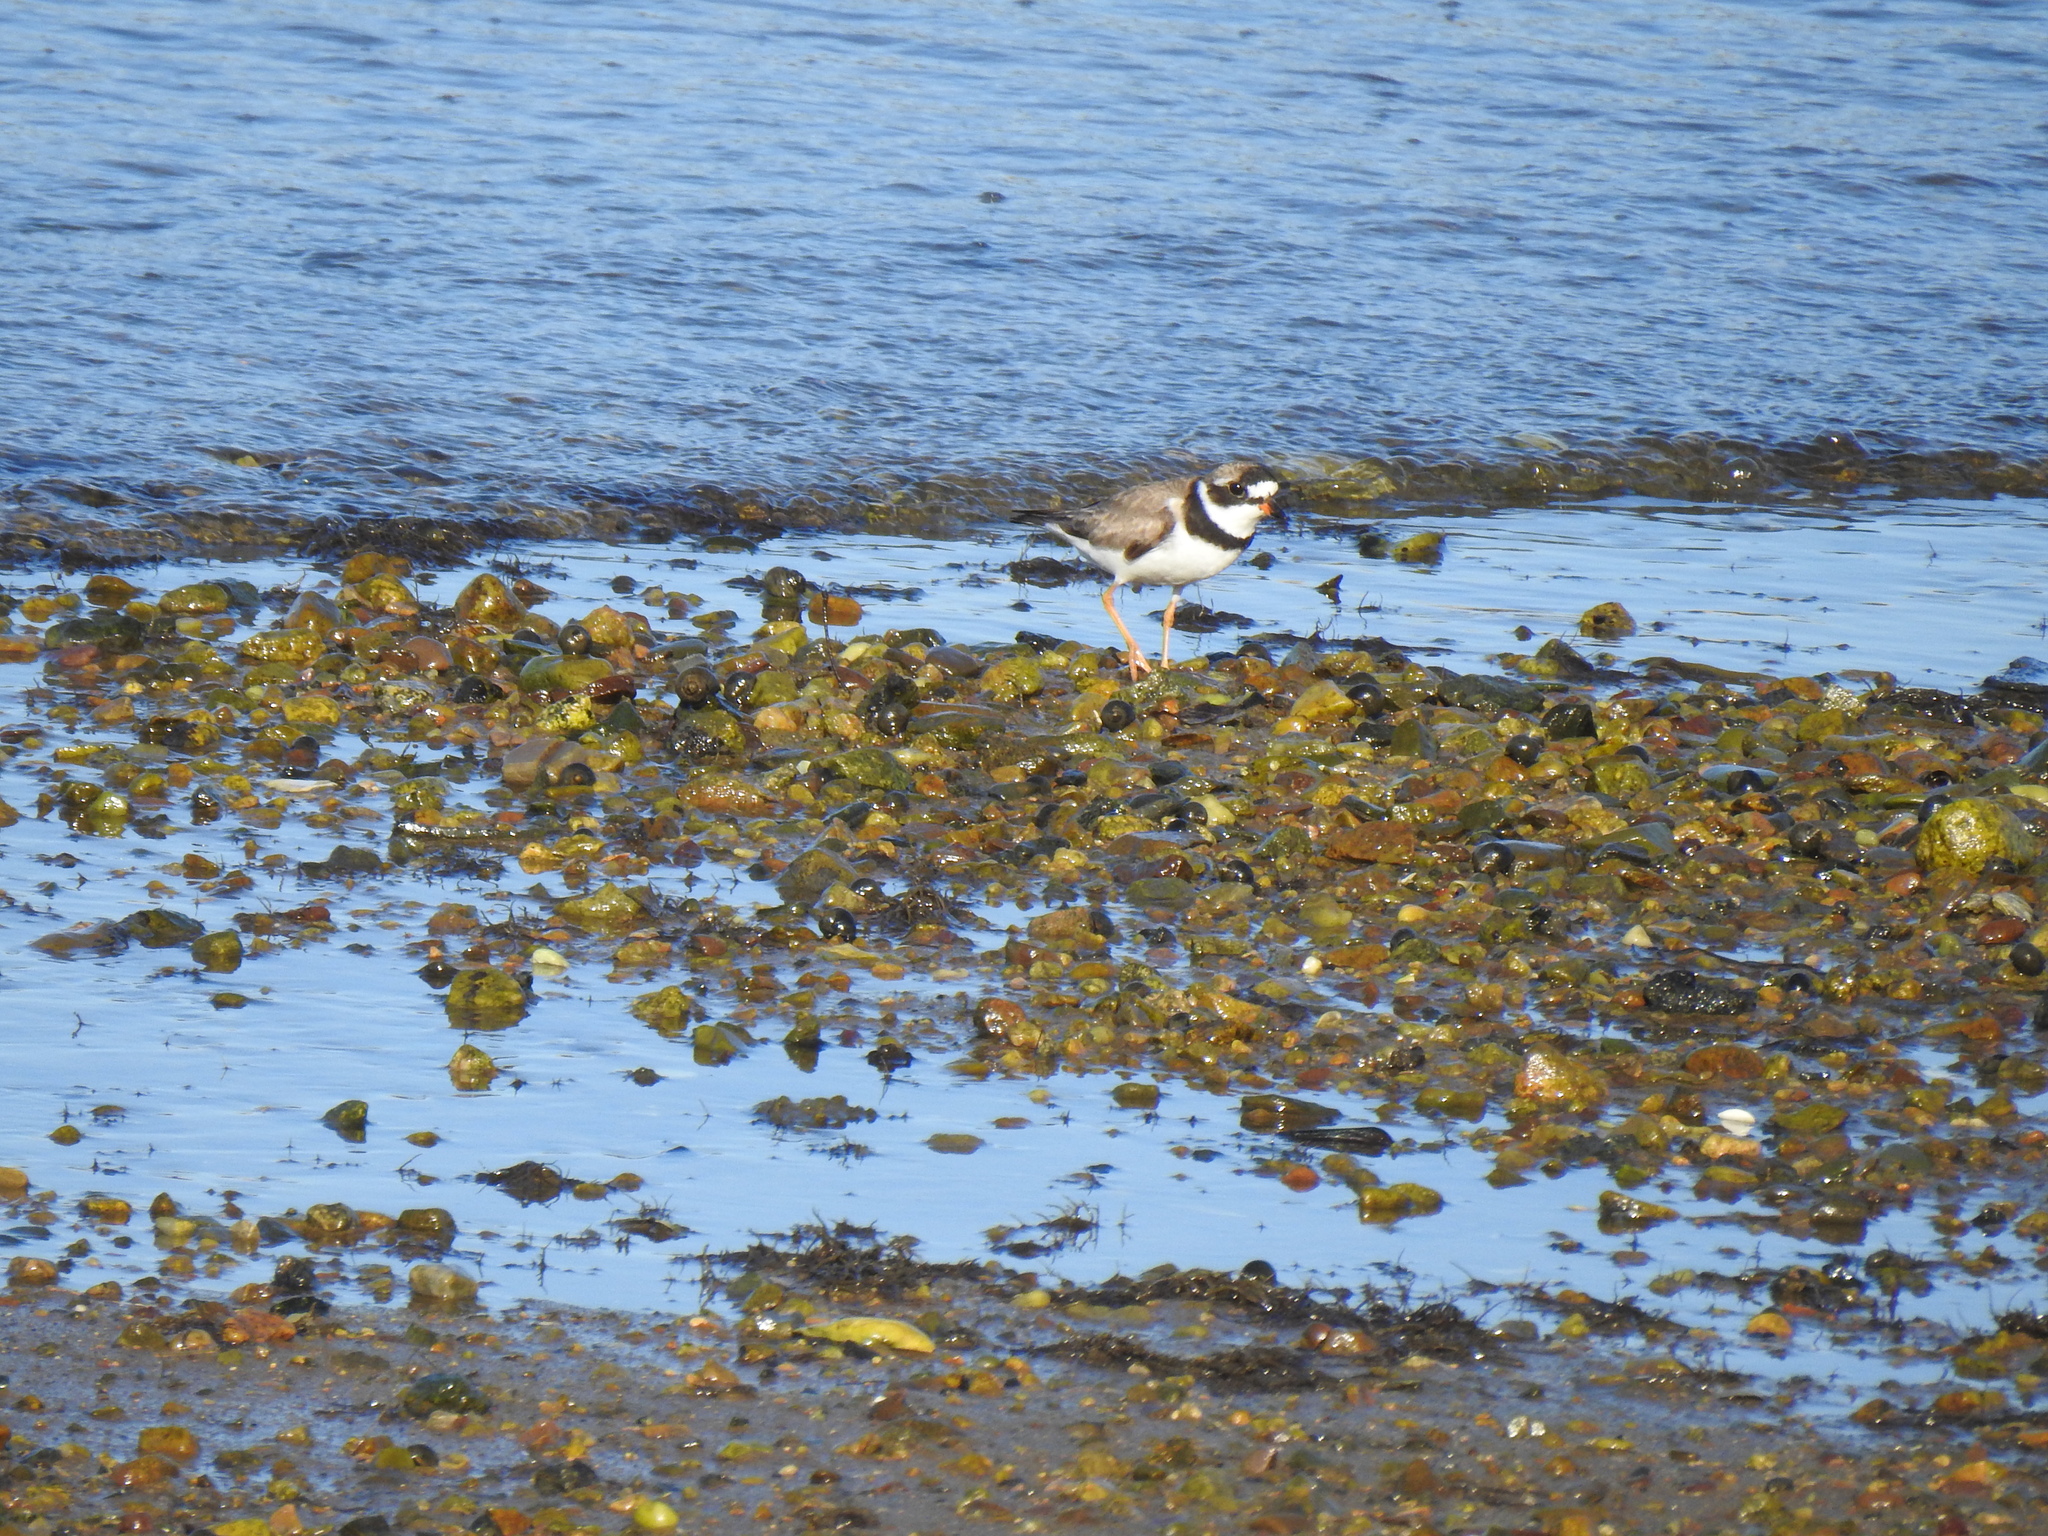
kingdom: Animalia
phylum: Chordata
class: Aves
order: Charadriiformes
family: Charadriidae
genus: Charadrius
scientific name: Charadrius semipalmatus
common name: Semipalmated plover
